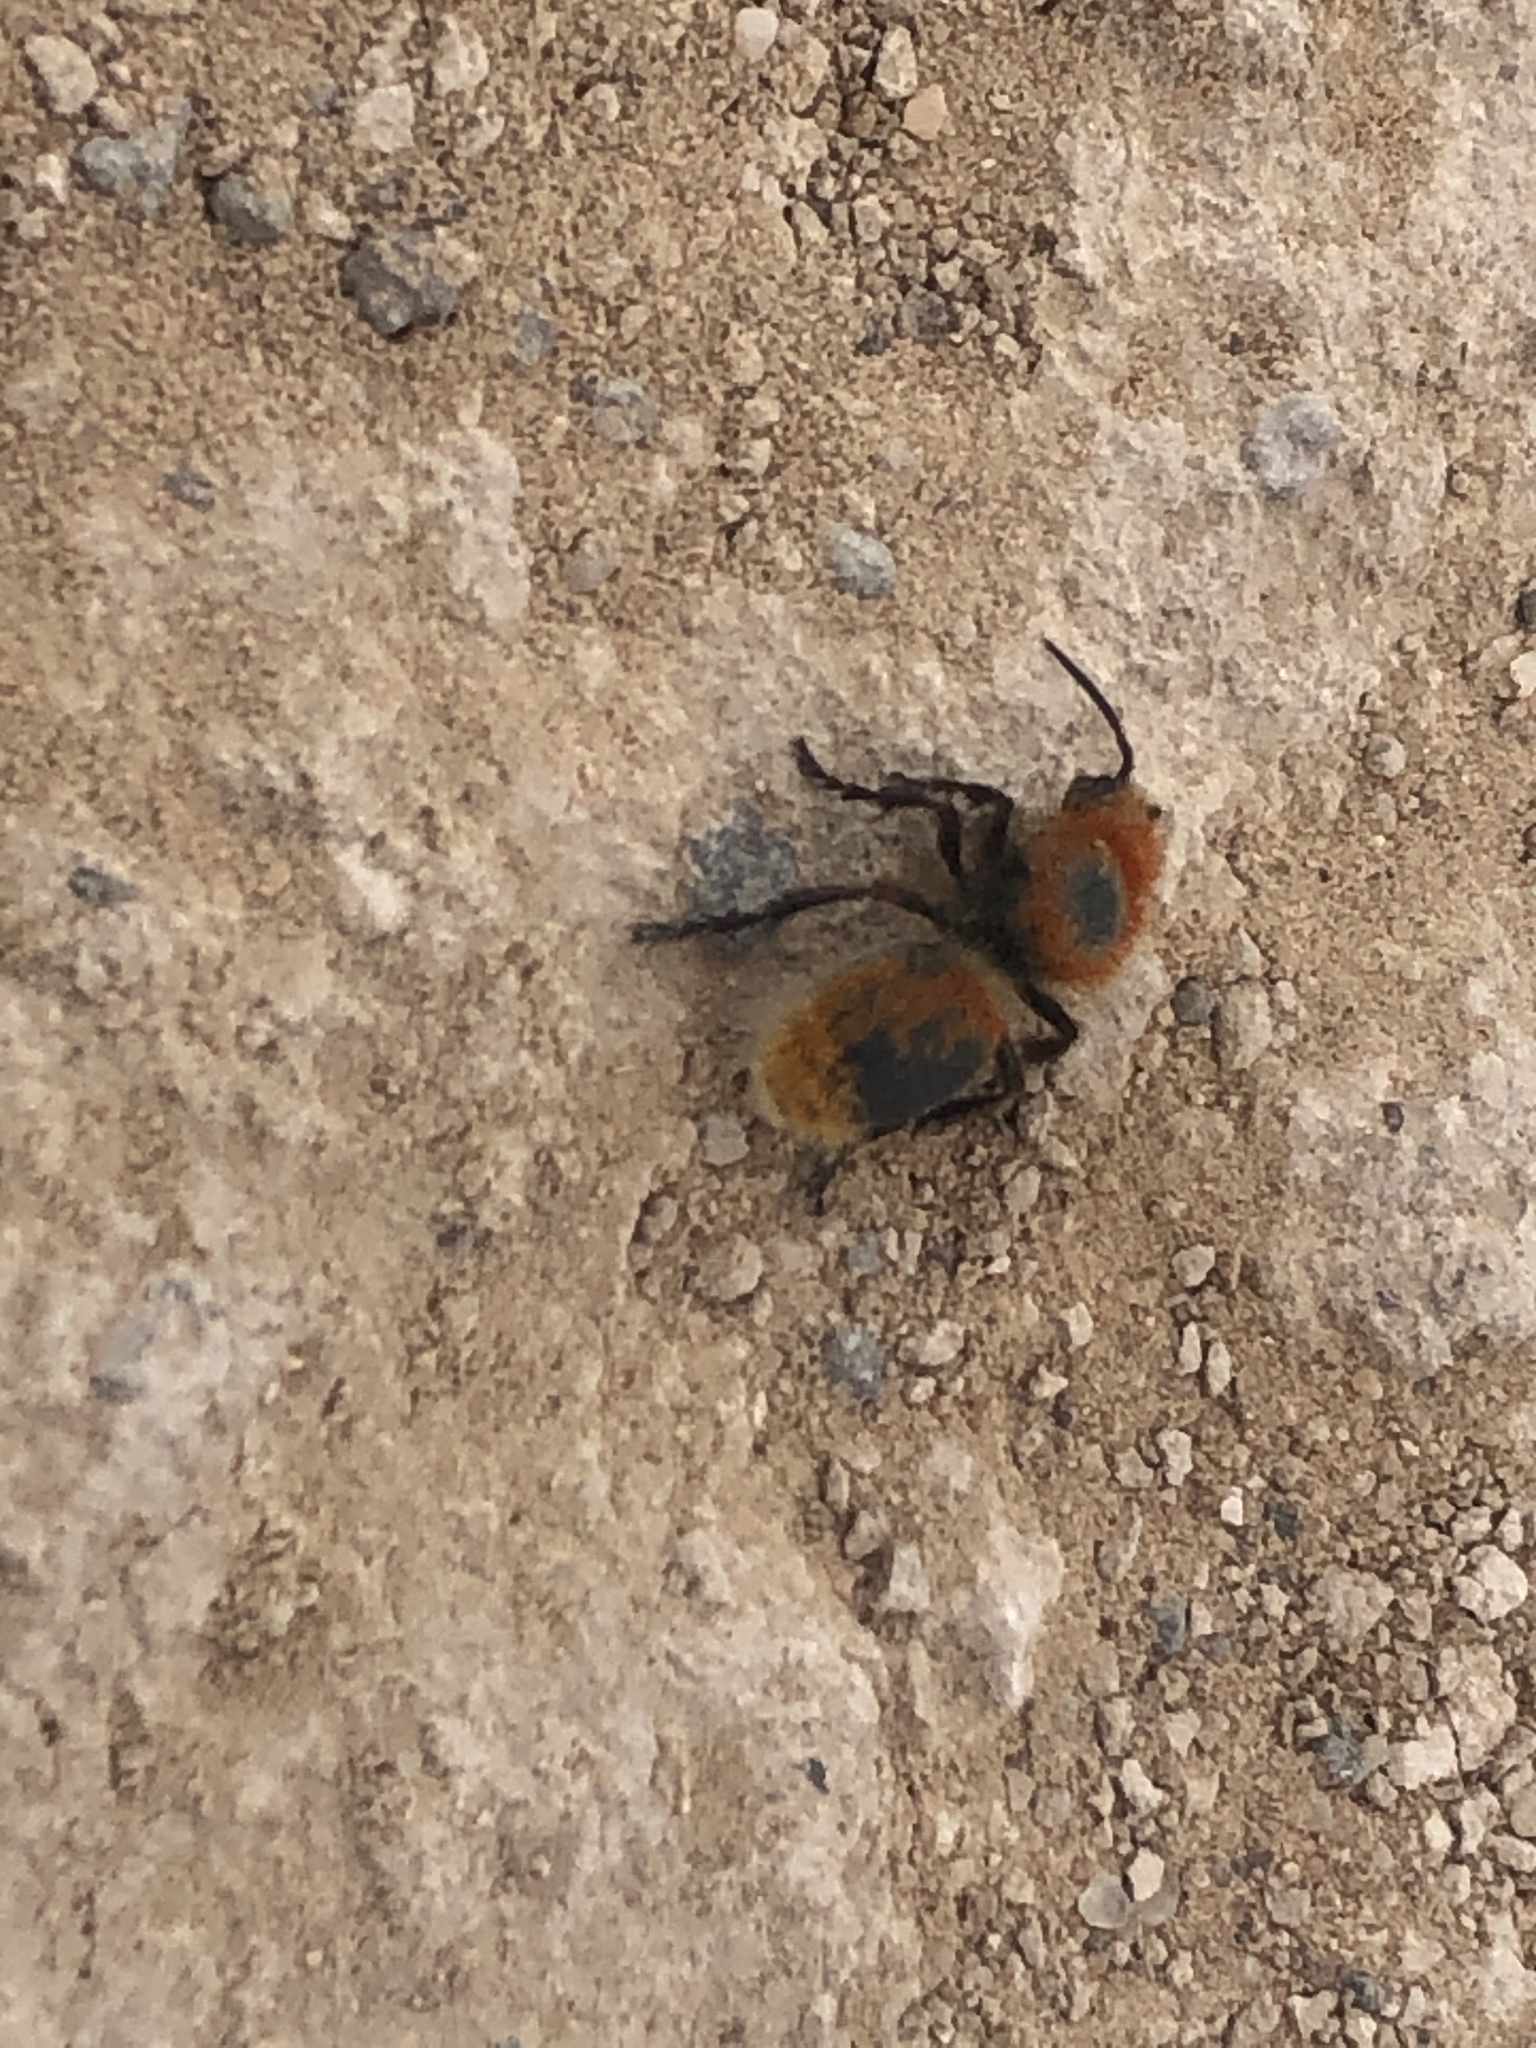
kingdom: Animalia
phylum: Arthropoda
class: Insecta
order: Hymenoptera
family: Mutillidae
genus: Dasymutilla
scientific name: Dasymutilla vestita
